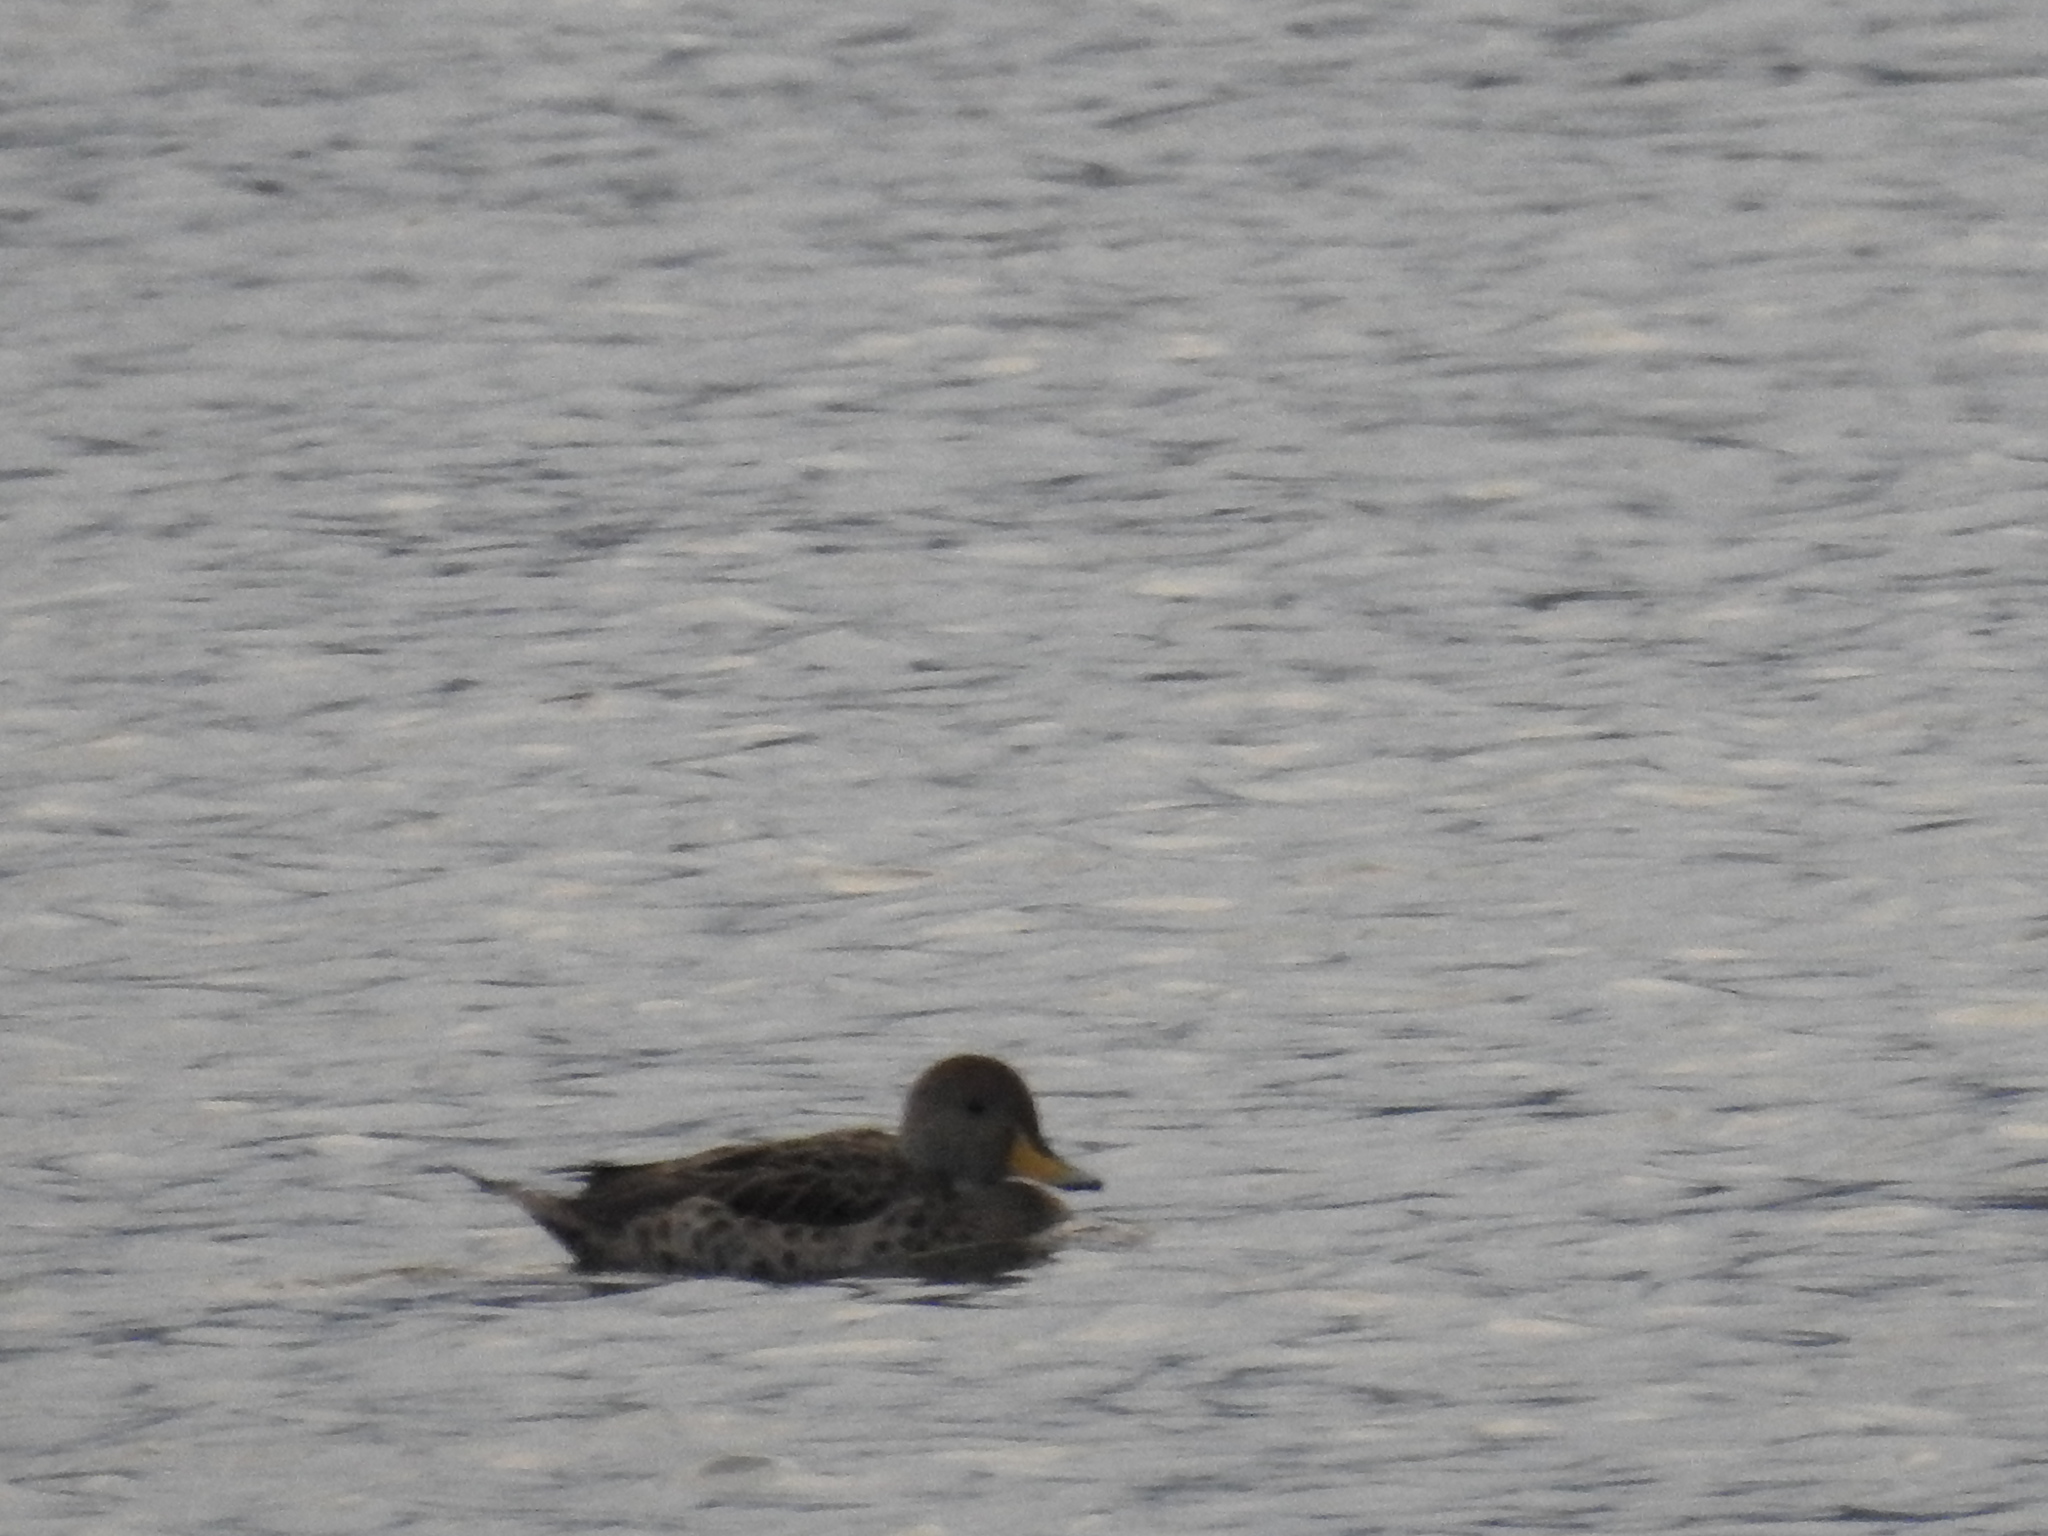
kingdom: Animalia
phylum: Chordata
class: Aves
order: Anseriformes
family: Anatidae
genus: Anas
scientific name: Anas georgica
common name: Yellow-billed pintail
